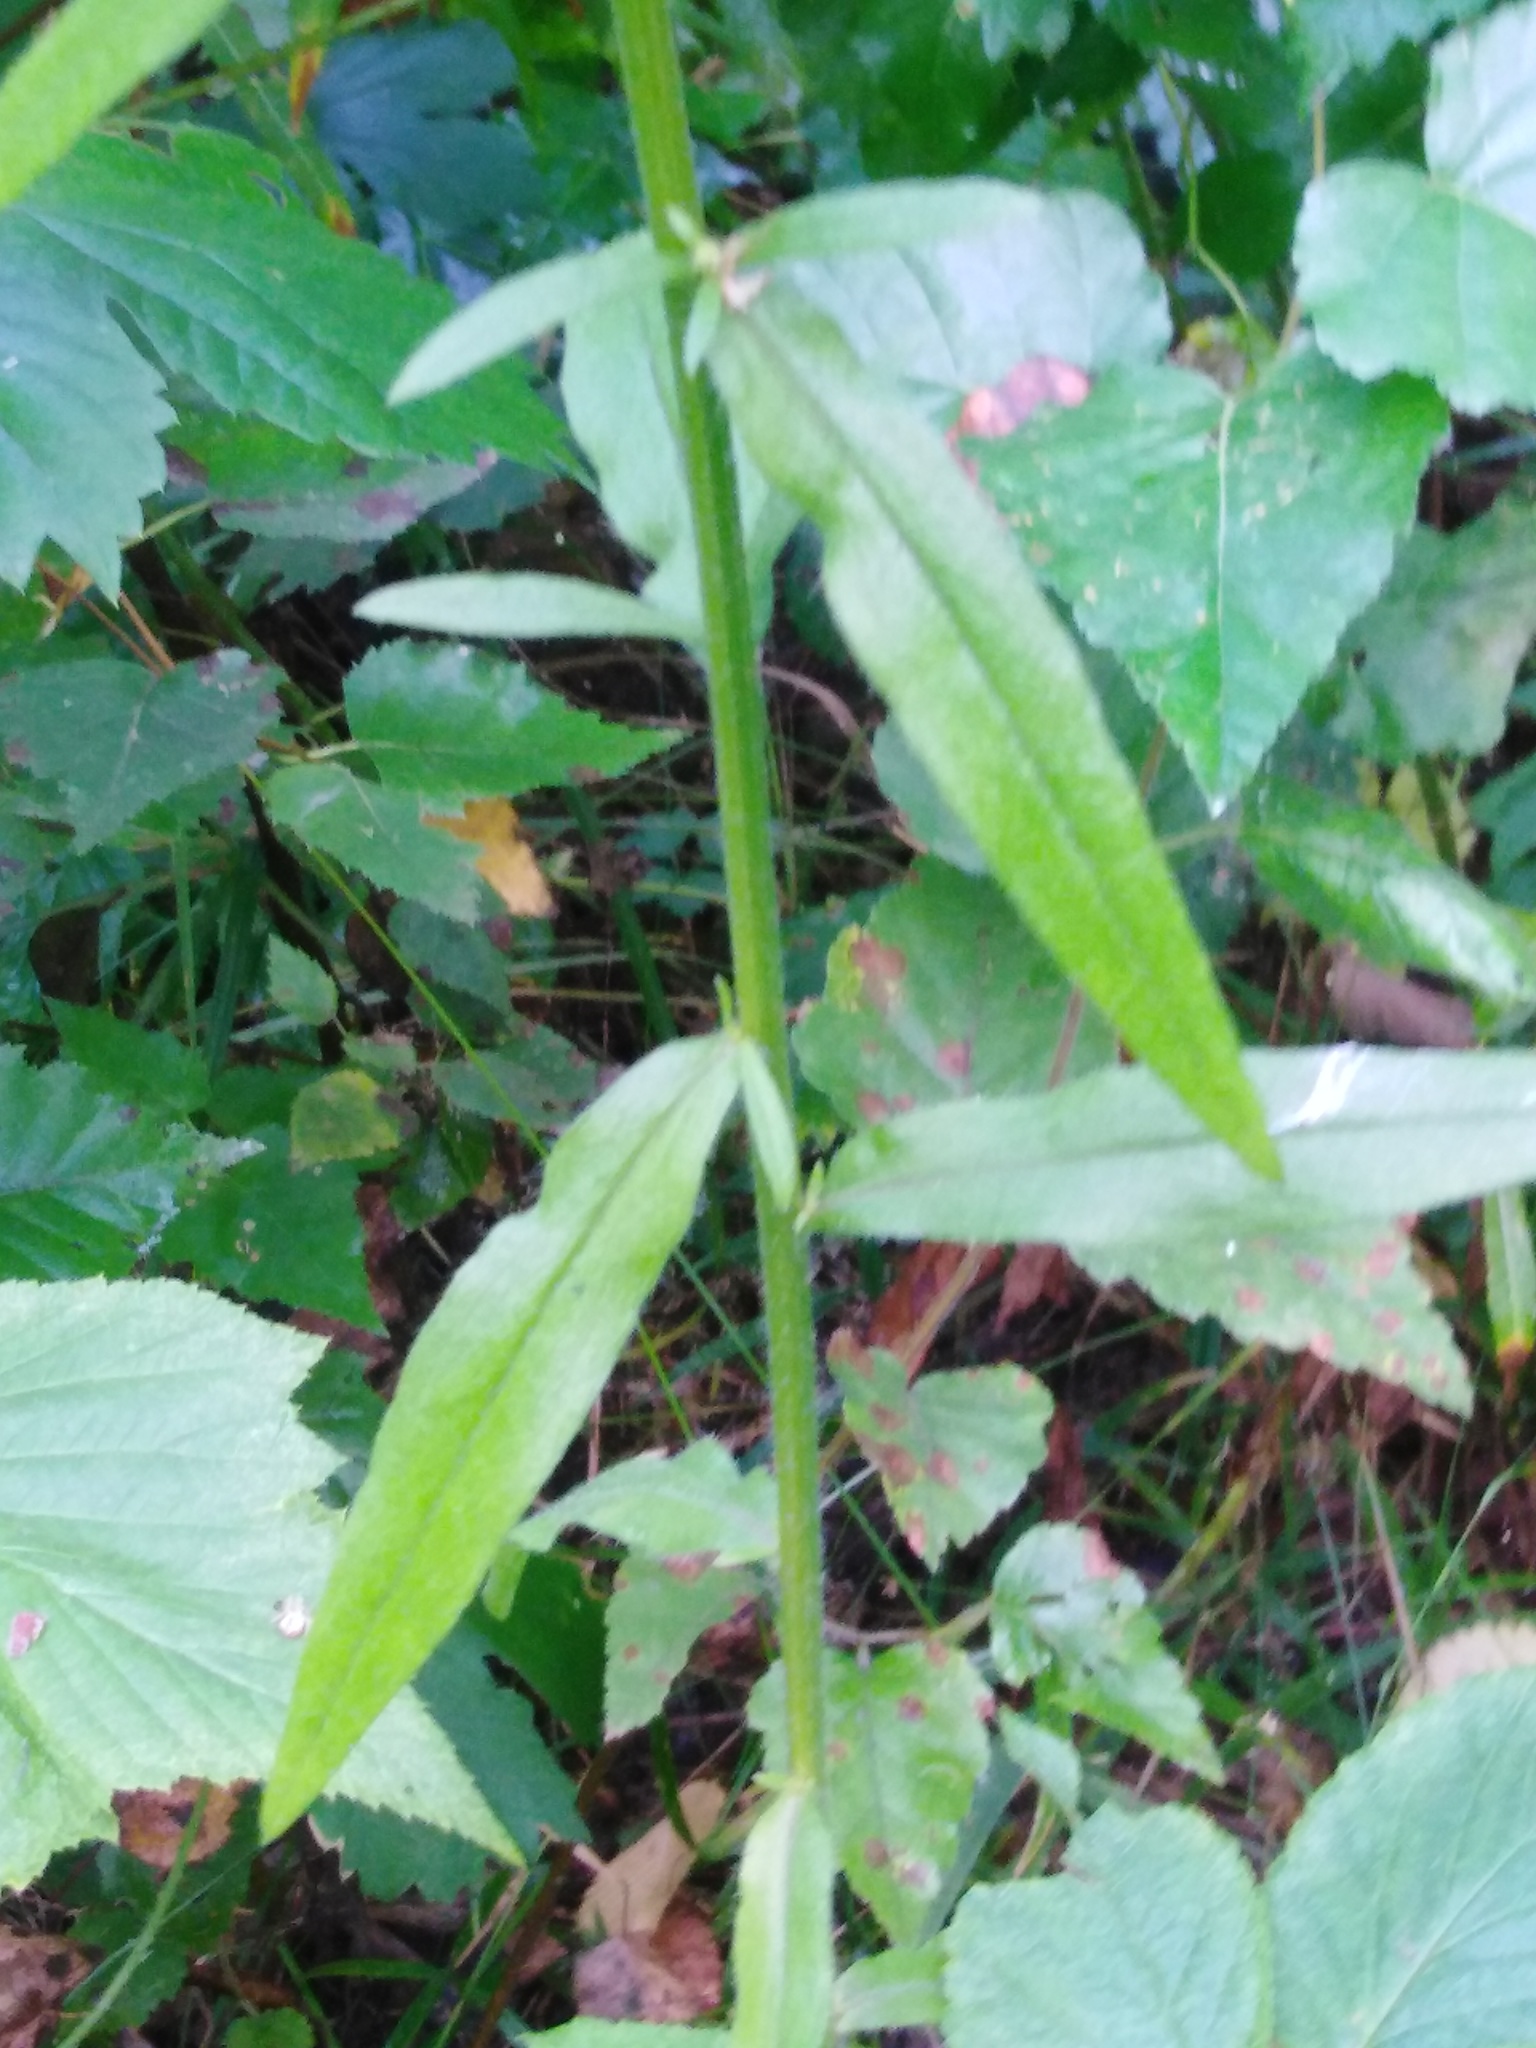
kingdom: Plantae
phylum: Tracheophyta
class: Magnoliopsida
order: Asterales
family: Asteraceae
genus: Erigeron
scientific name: Erigeron annuus
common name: Tall fleabane
